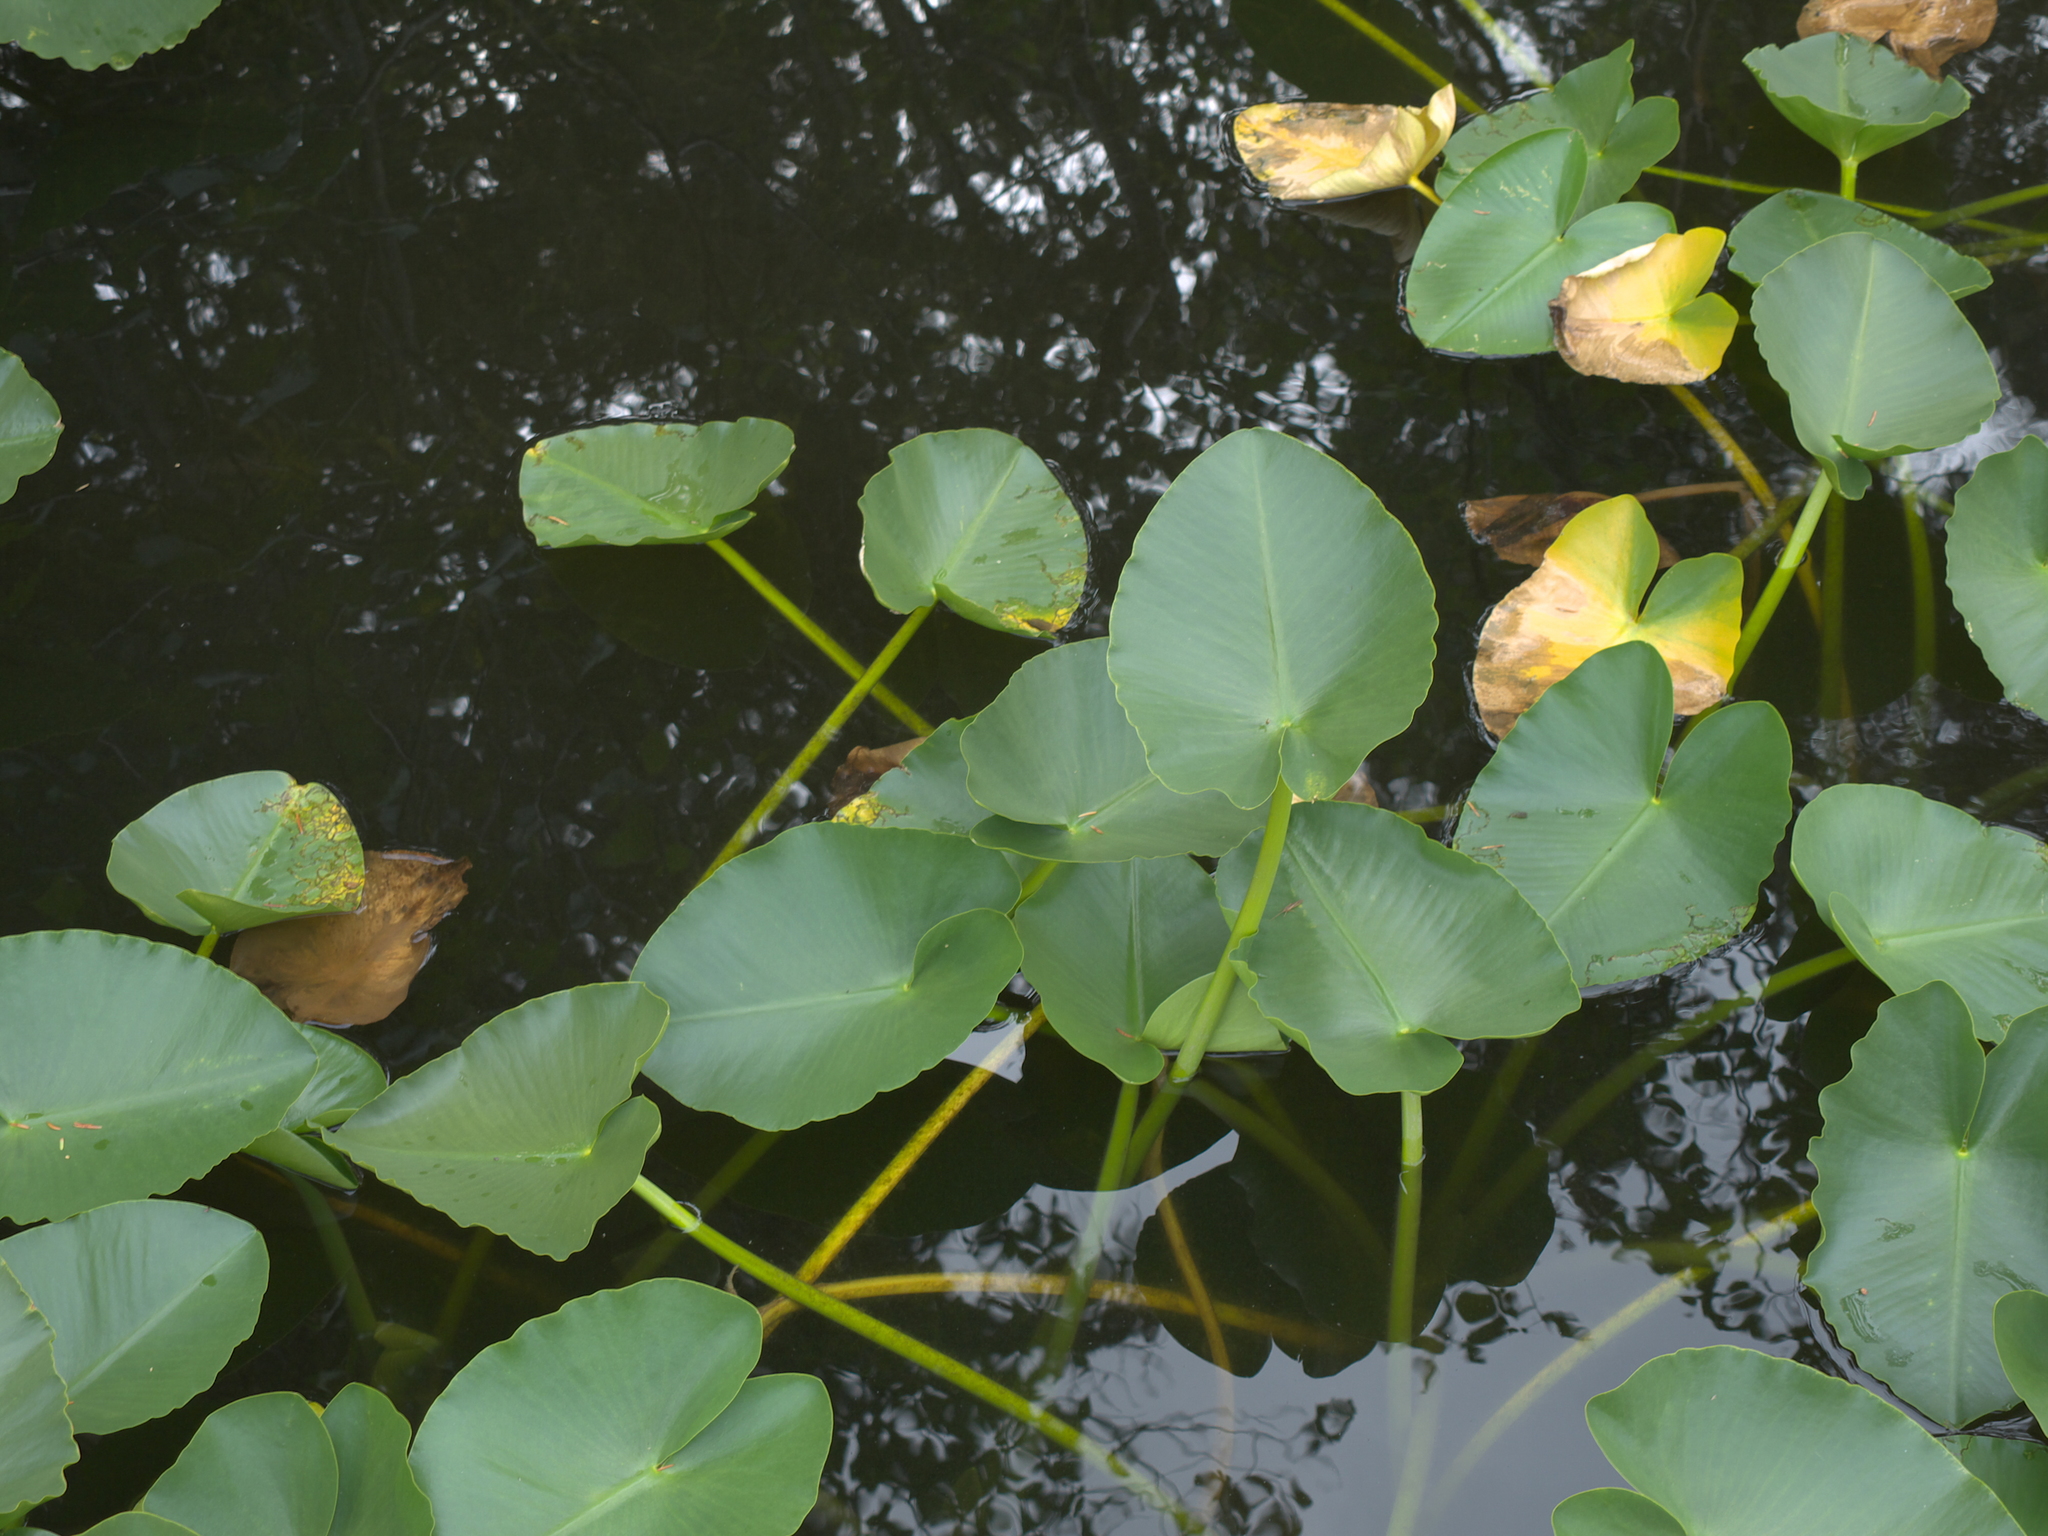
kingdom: Plantae
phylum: Tracheophyta
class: Magnoliopsida
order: Nymphaeales
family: Nymphaeaceae
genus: Nuphar
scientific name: Nuphar polysepala
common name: Rocky mountain cow-lily
